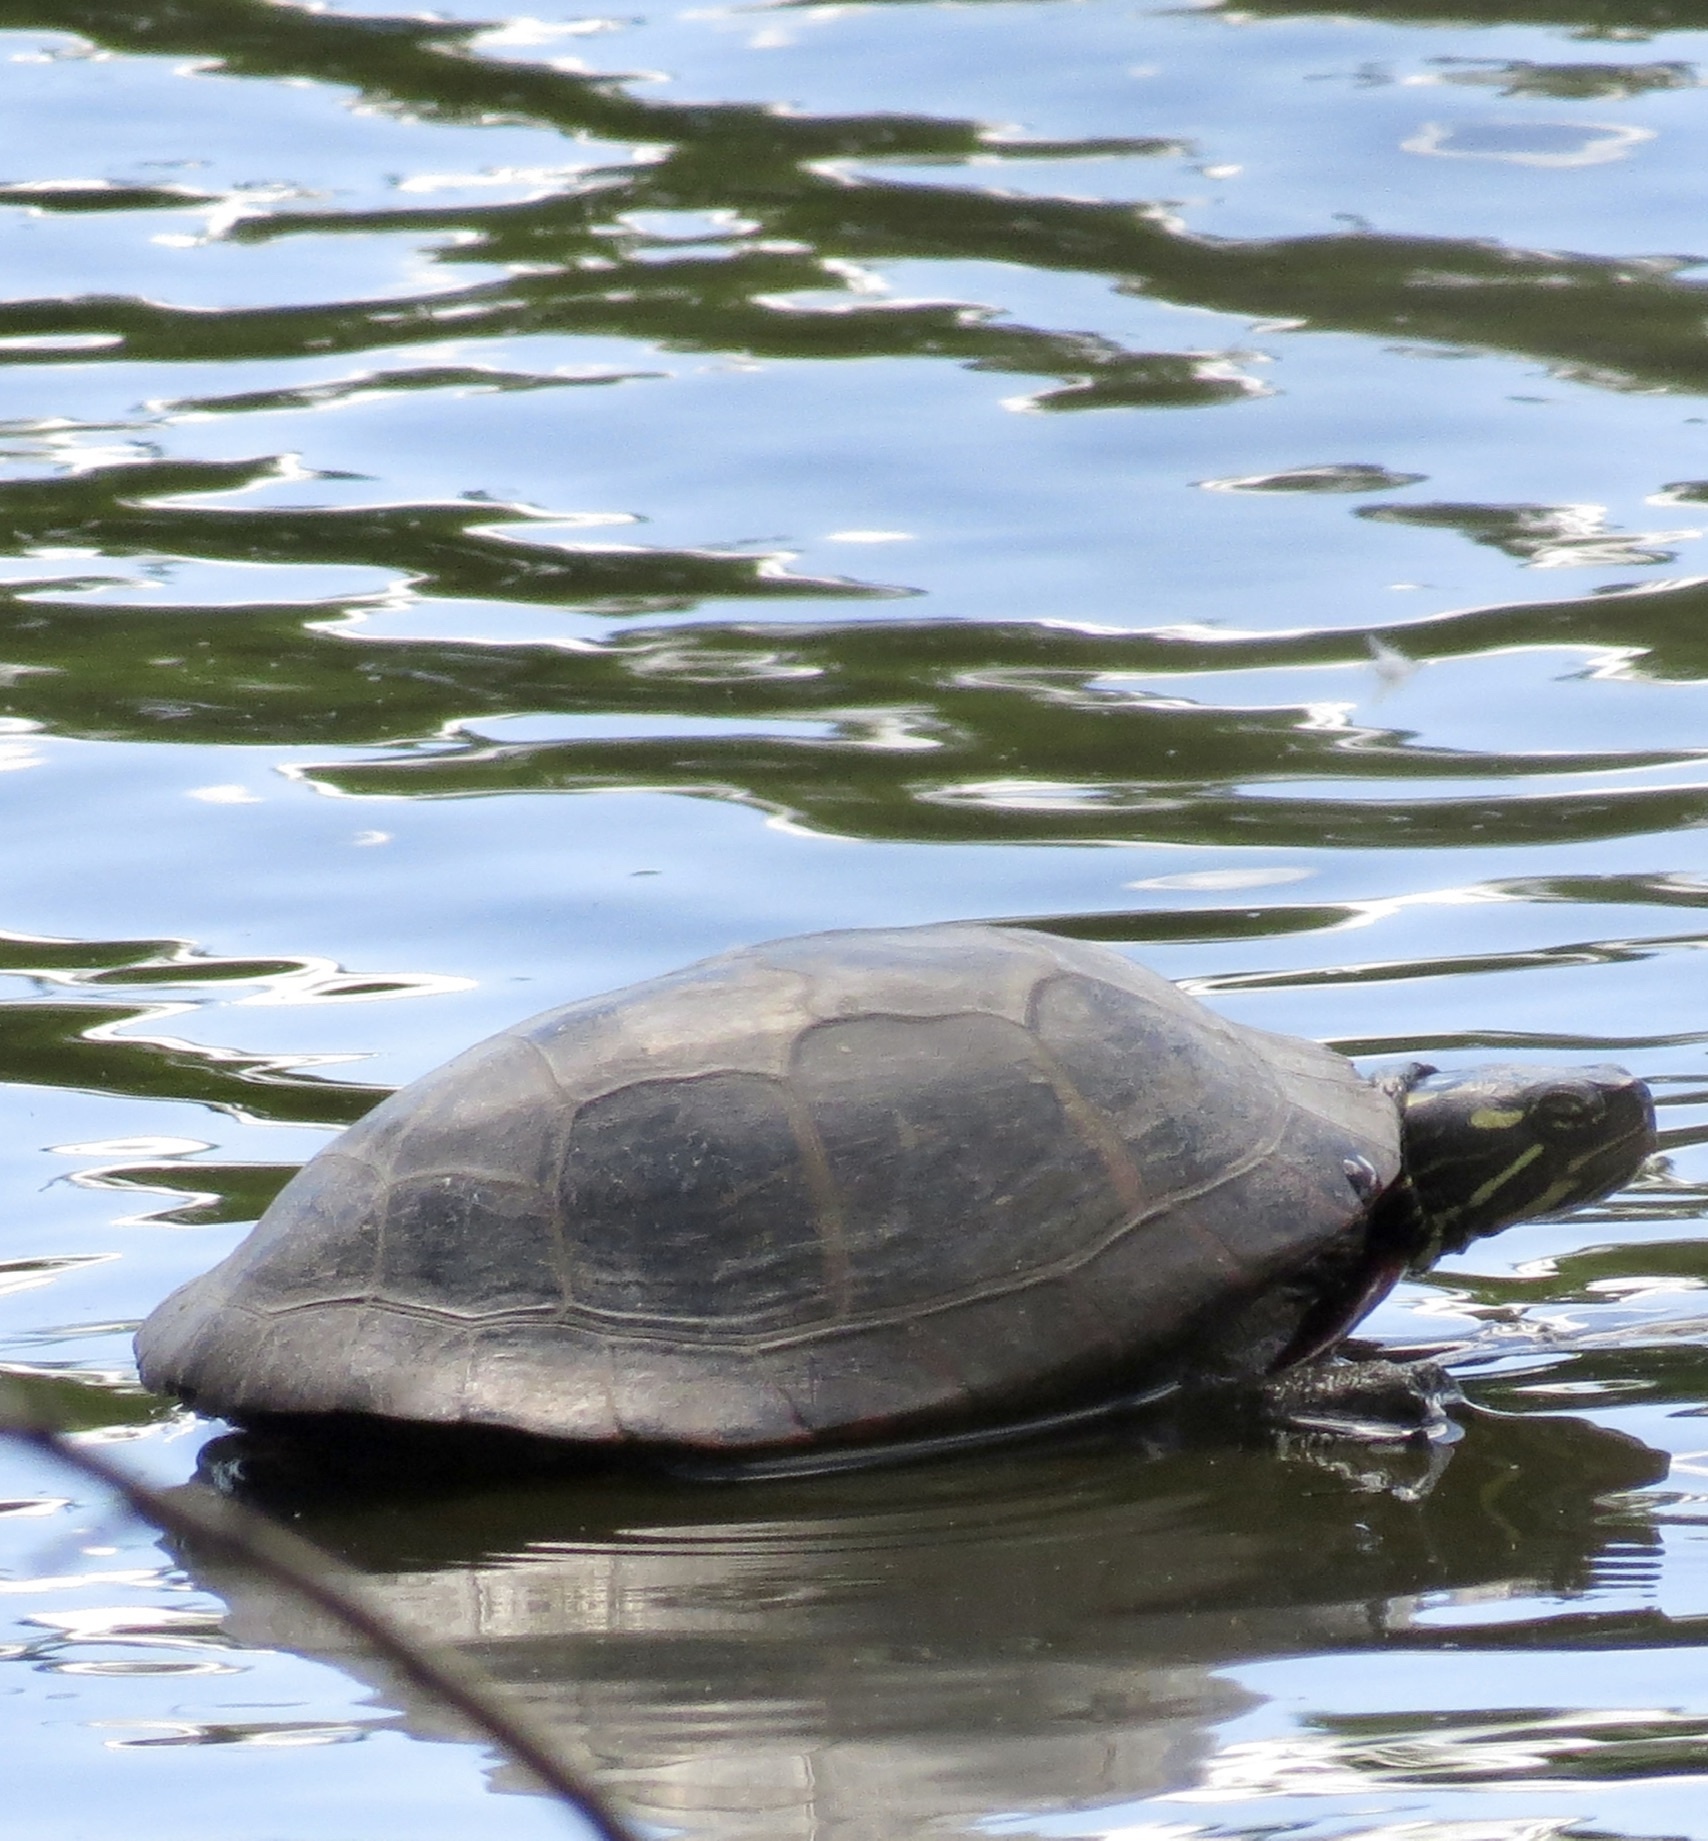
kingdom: Animalia
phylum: Chordata
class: Testudines
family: Emydidae
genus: Chrysemys
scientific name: Chrysemys picta
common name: Painted turtle
